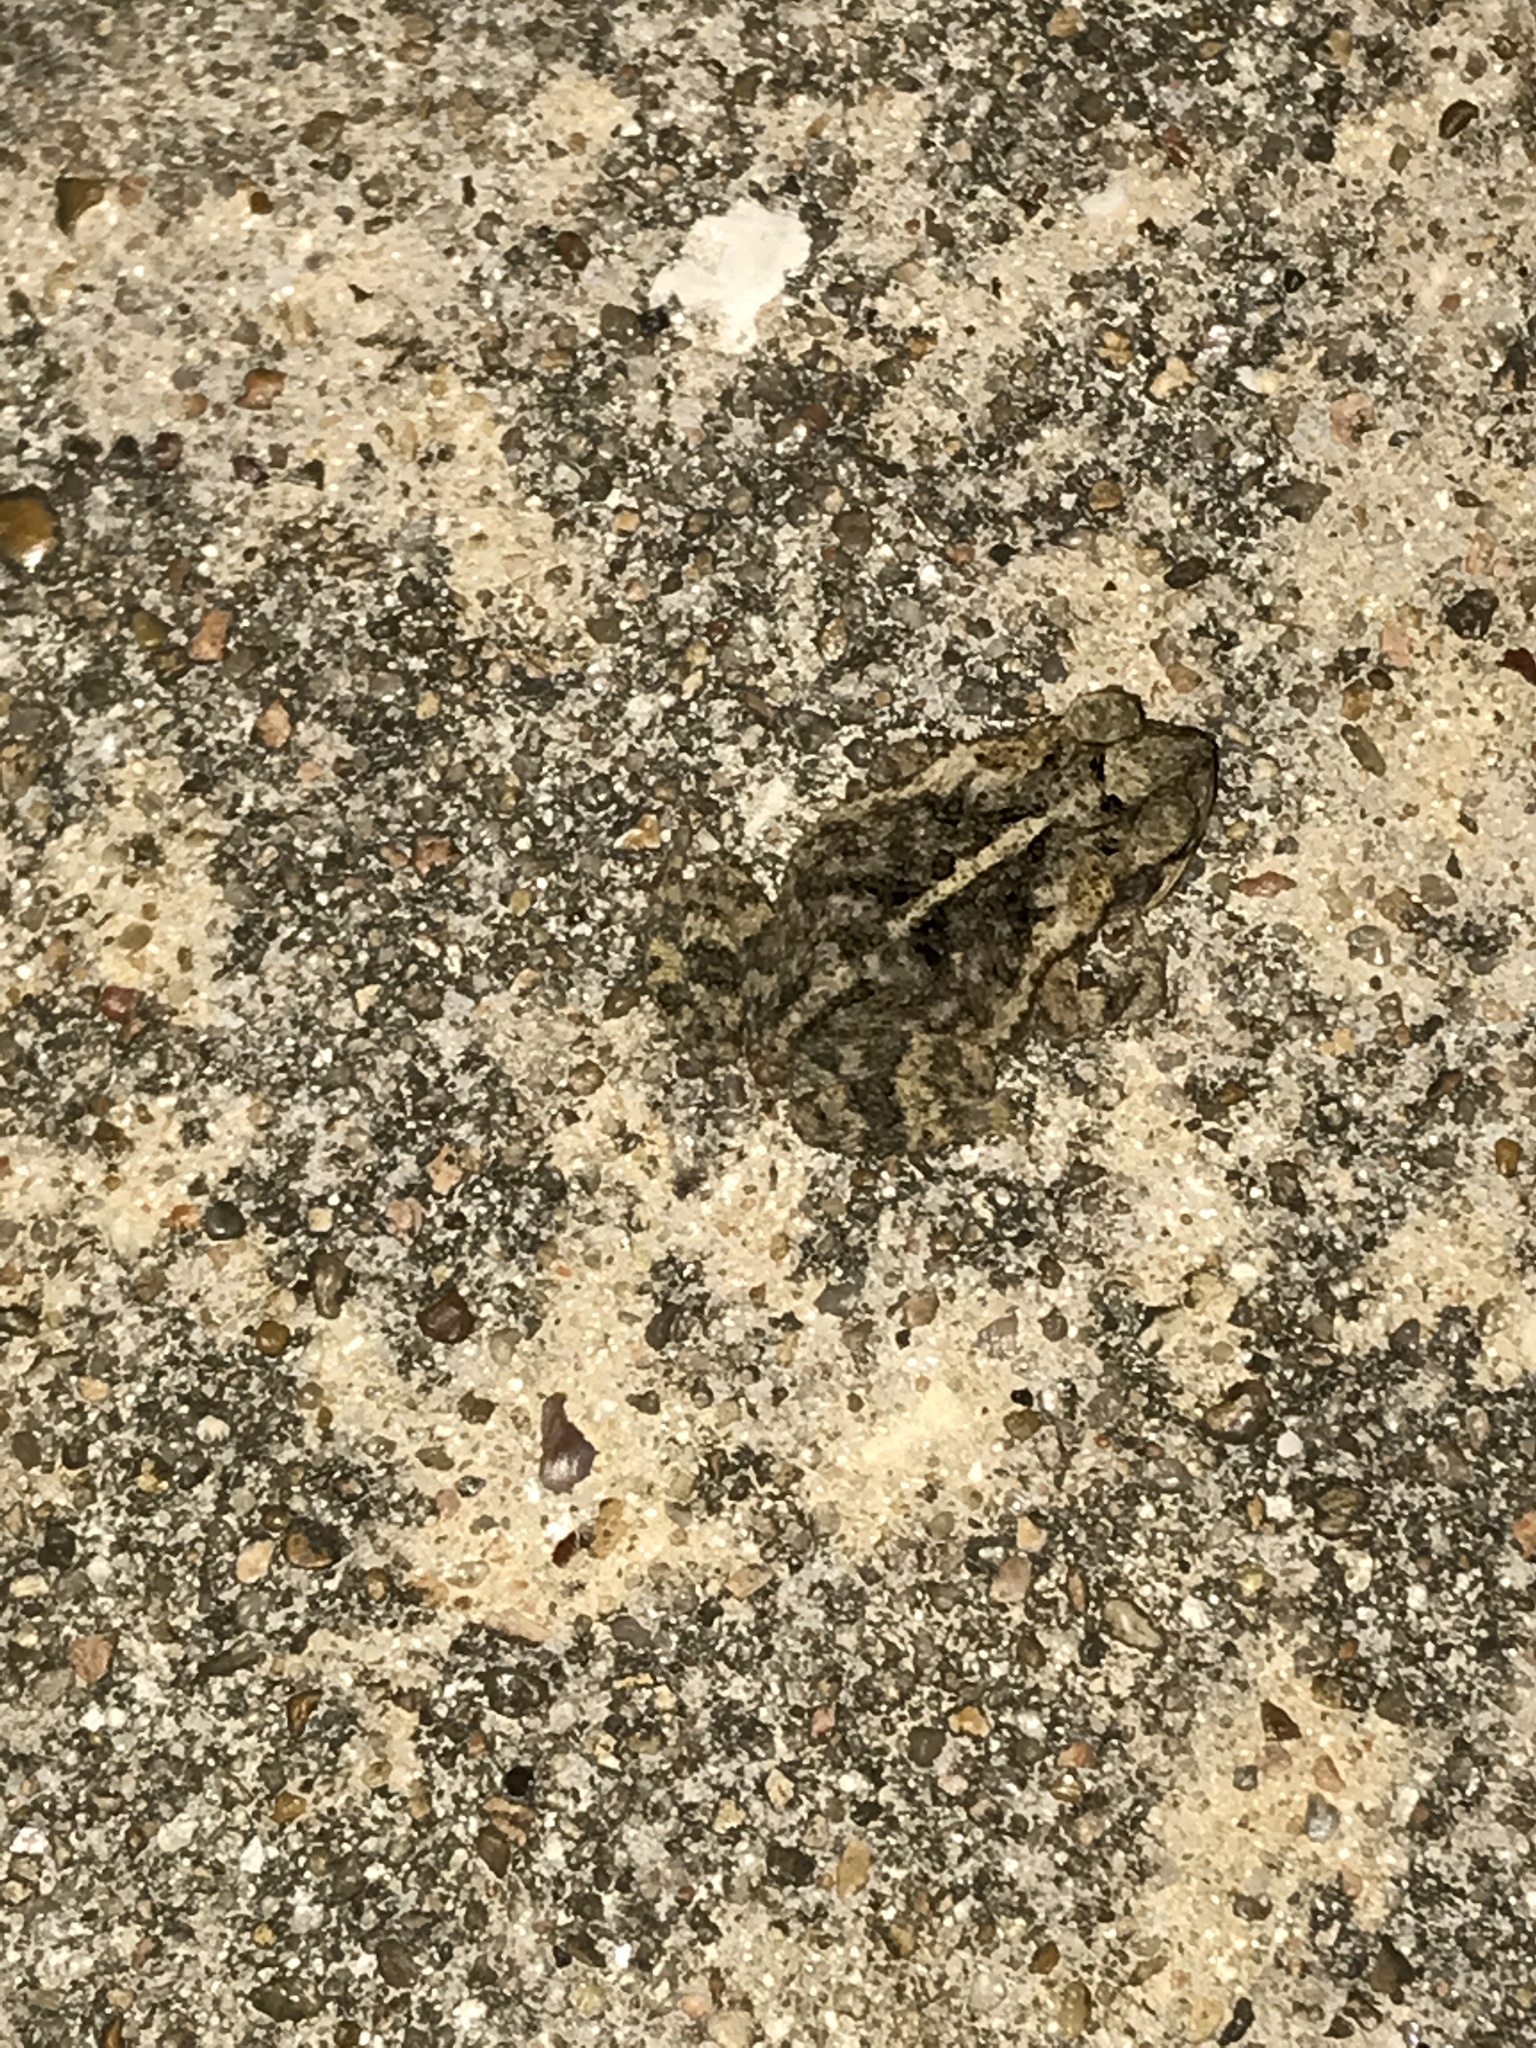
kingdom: Animalia
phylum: Chordata
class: Amphibia
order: Anura
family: Bufonidae
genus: Incilius
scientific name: Incilius nebulifer
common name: Gulf coast toad
